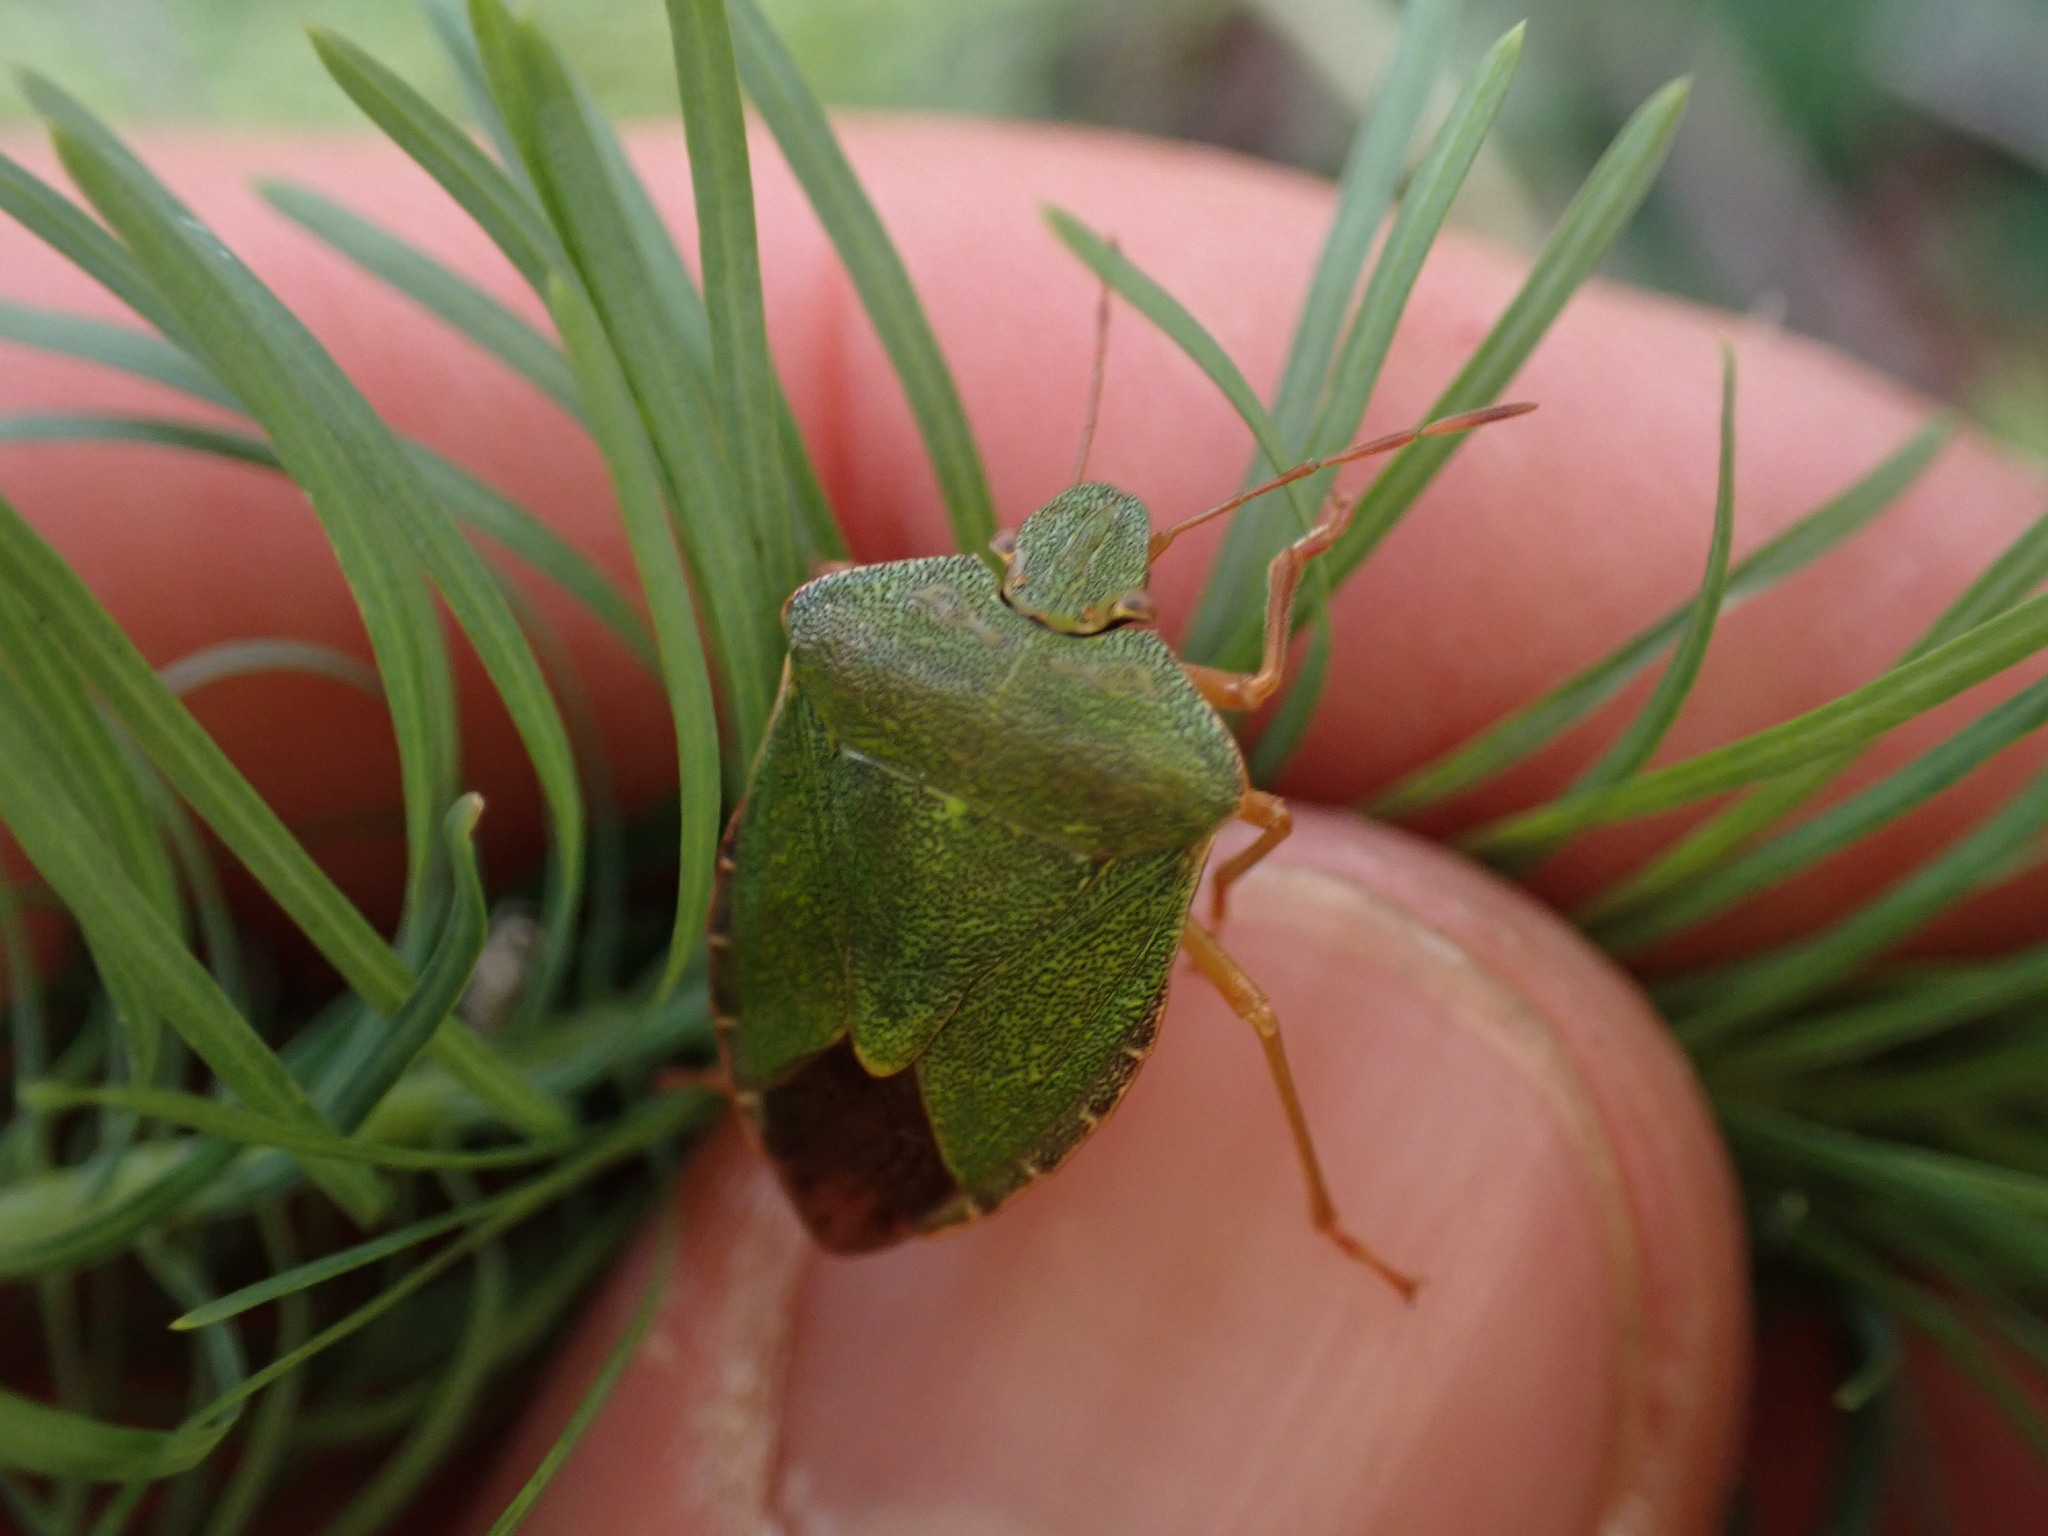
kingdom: Animalia
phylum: Arthropoda
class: Insecta
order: Hemiptera
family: Pentatomidae
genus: Palomena
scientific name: Palomena prasina
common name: Green shieldbug
